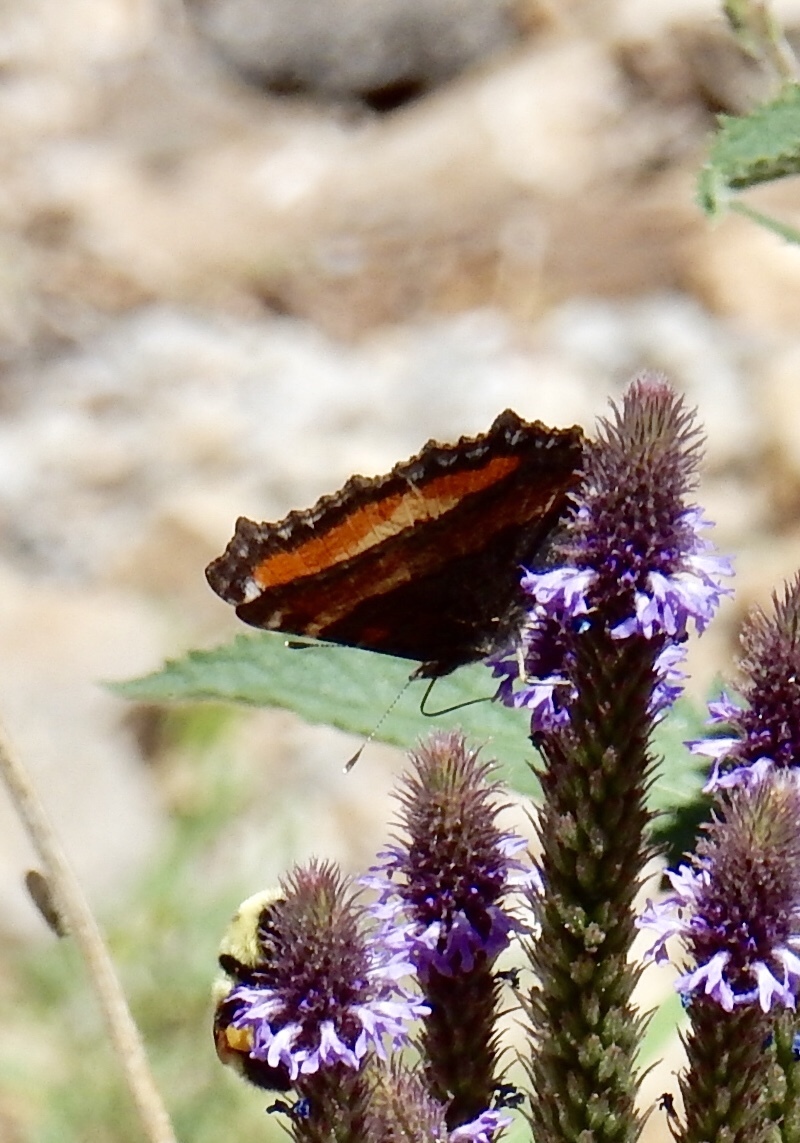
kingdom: Animalia
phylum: Arthropoda
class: Insecta
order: Lepidoptera
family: Nymphalidae
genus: Aglais
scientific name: Aglais milberti
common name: Milbert's tortoiseshell
